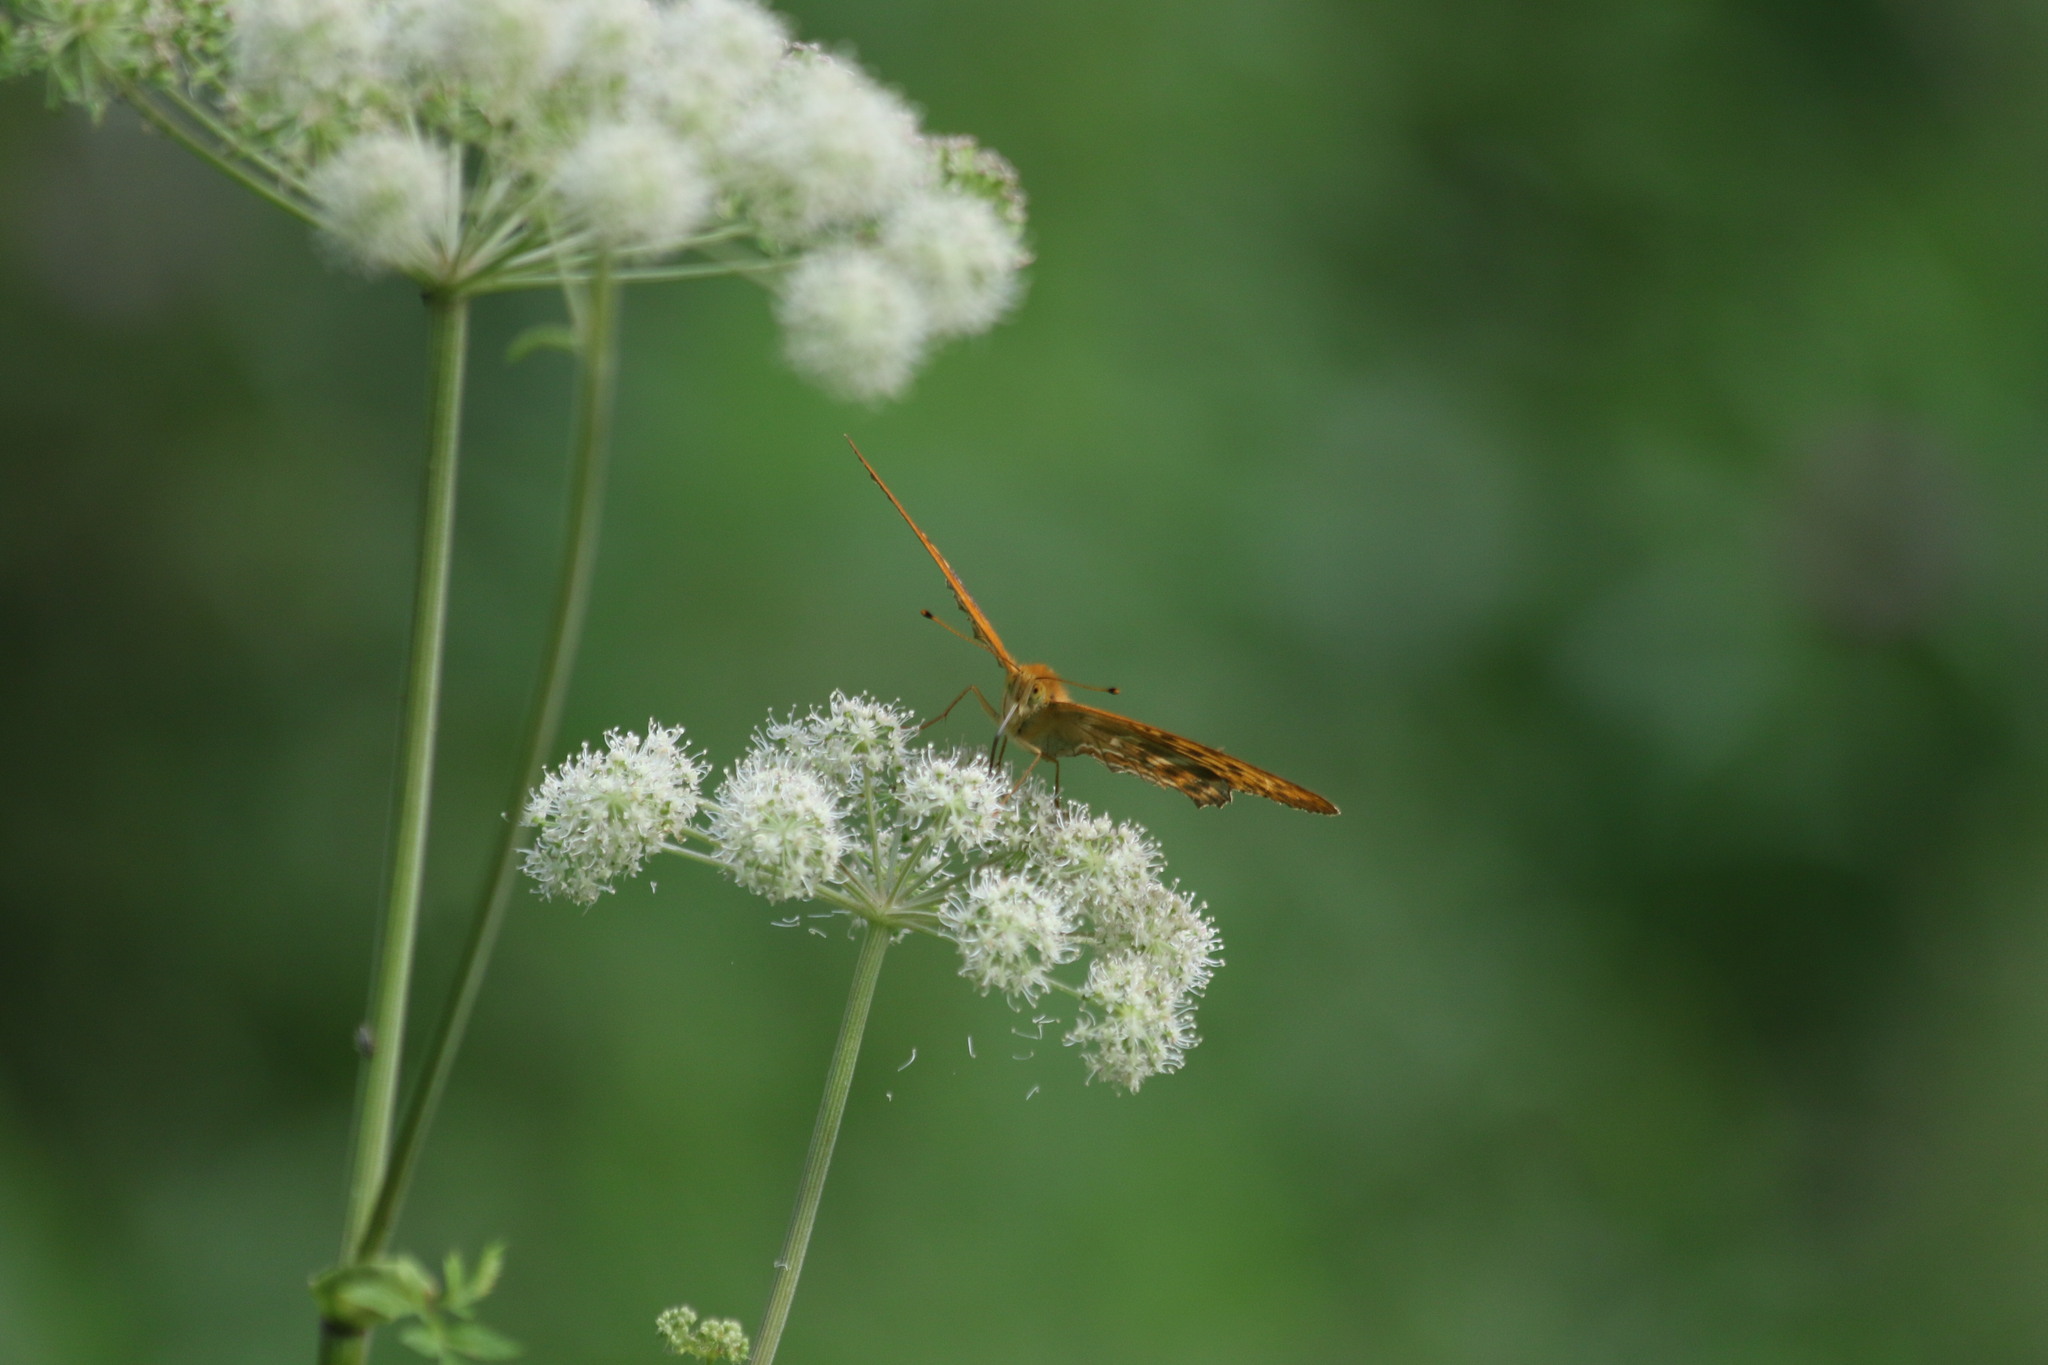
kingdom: Animalia
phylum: Arthropoda
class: Insecta
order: Lepidoptera
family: Nymphalidae
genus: Argynnis
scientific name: Argynnis paphia
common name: Silver-washed fritillary
